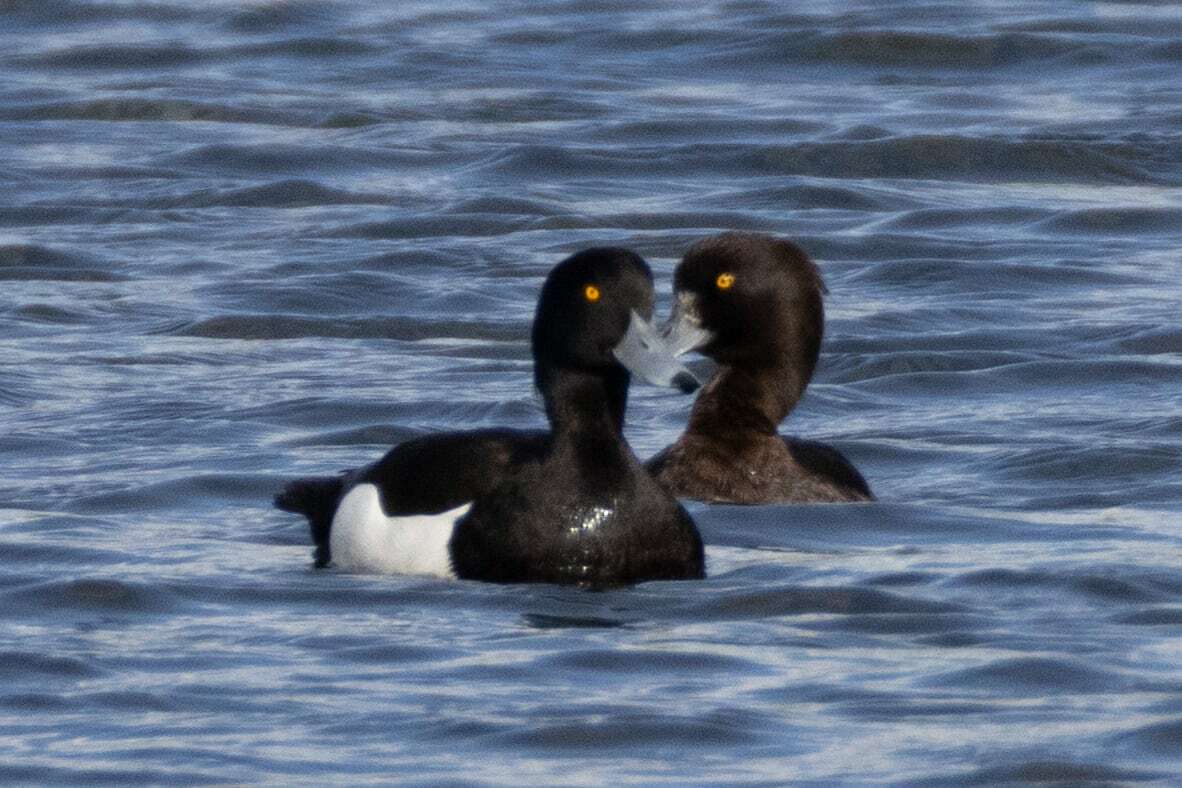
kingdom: Animalia
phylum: Chordata
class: Aves
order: Anseriformes
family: Anatidae
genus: Aythya
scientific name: Aythya fuligula
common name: Tufted duck
